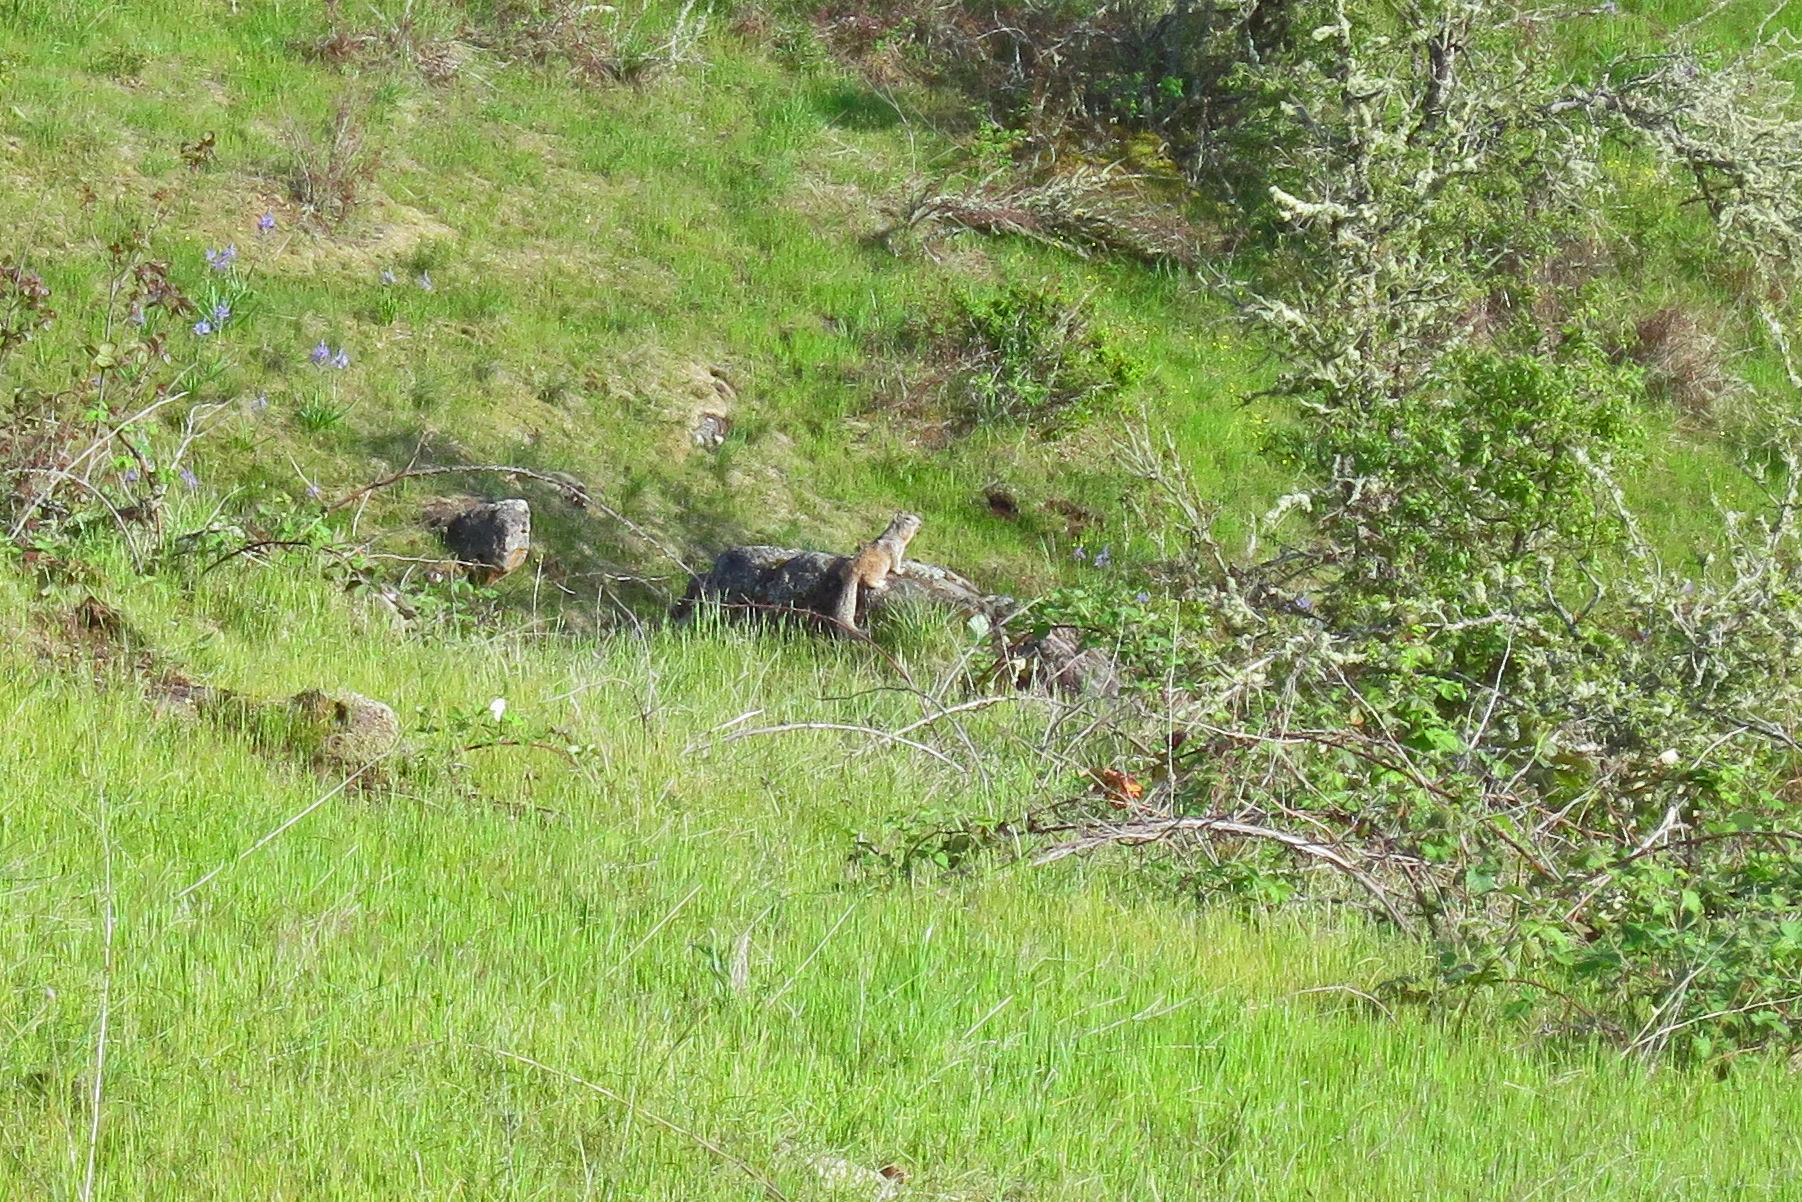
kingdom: Animalia
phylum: Chordata
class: Mammalia
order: Rodentia
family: Sciuridae
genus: Otospermophilus
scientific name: Otospermophilus beecheyi
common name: California ground squirrel
